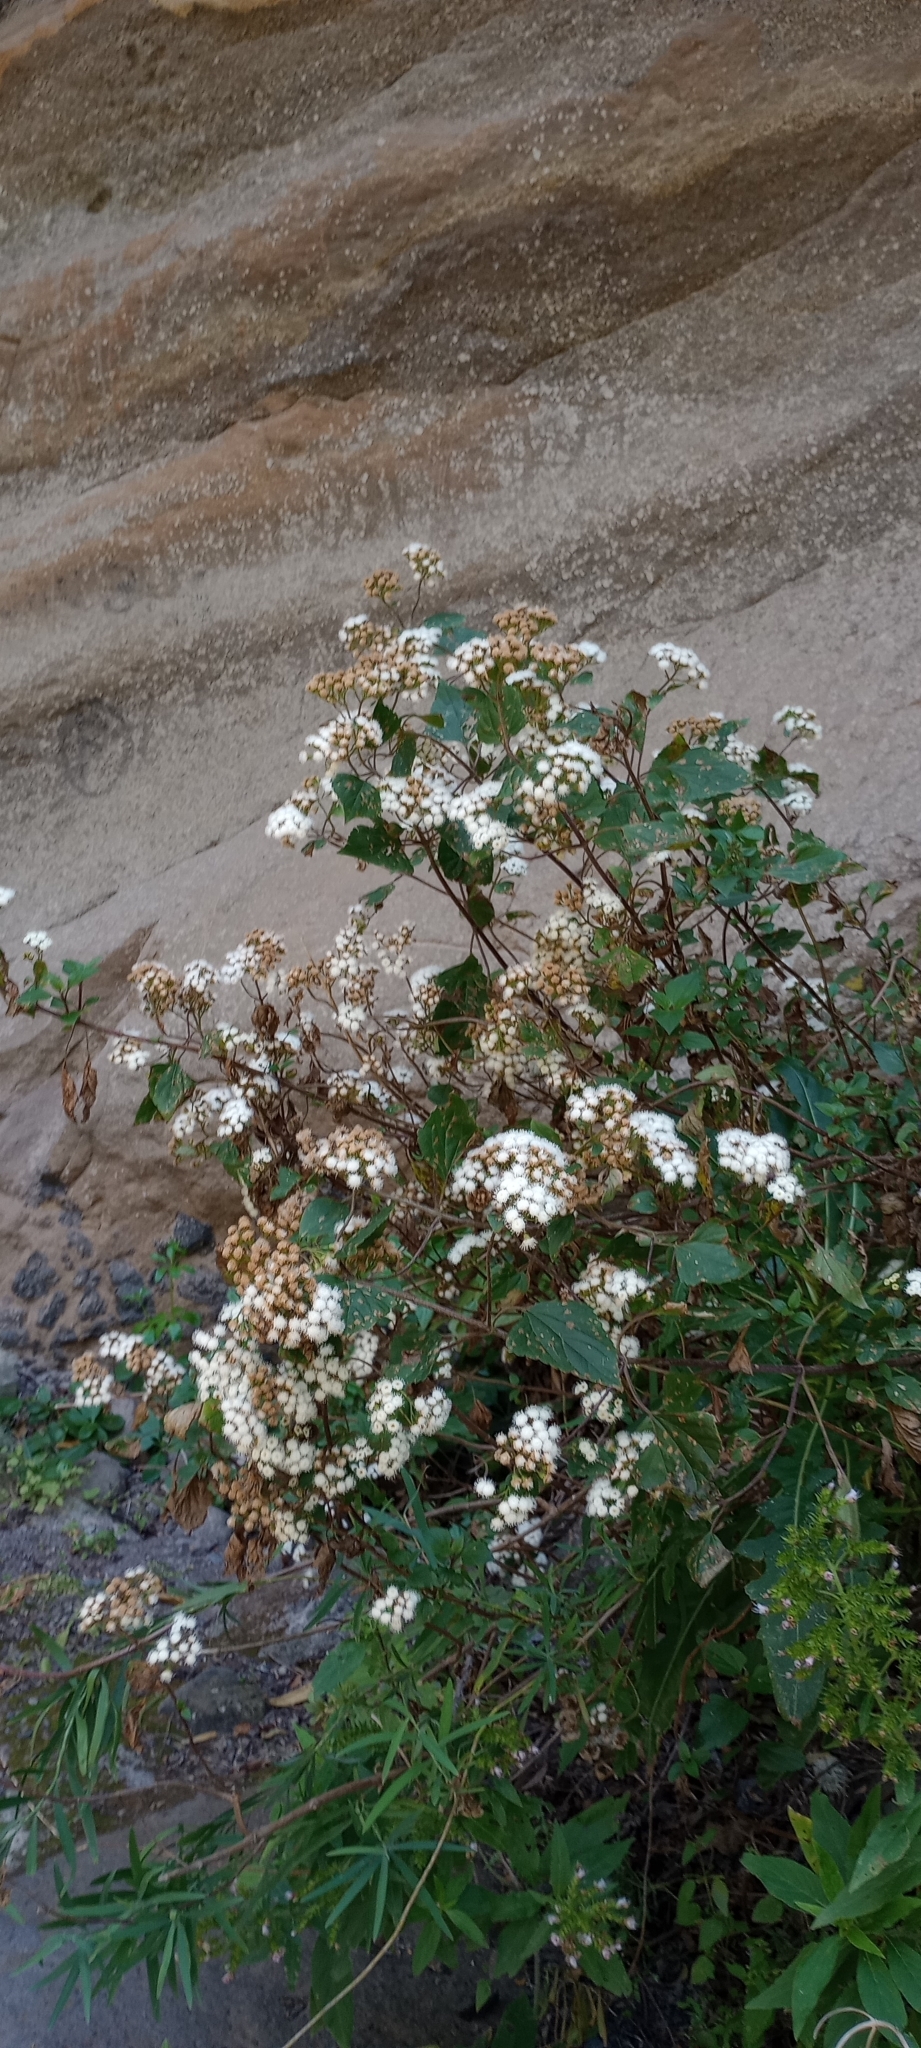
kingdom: Plantae
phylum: Tracheophyta
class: Magnoliopsida
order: Asterales
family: Asteraceae
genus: Ageratina
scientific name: Ageratina adenophora
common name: Sticky snakeroot
